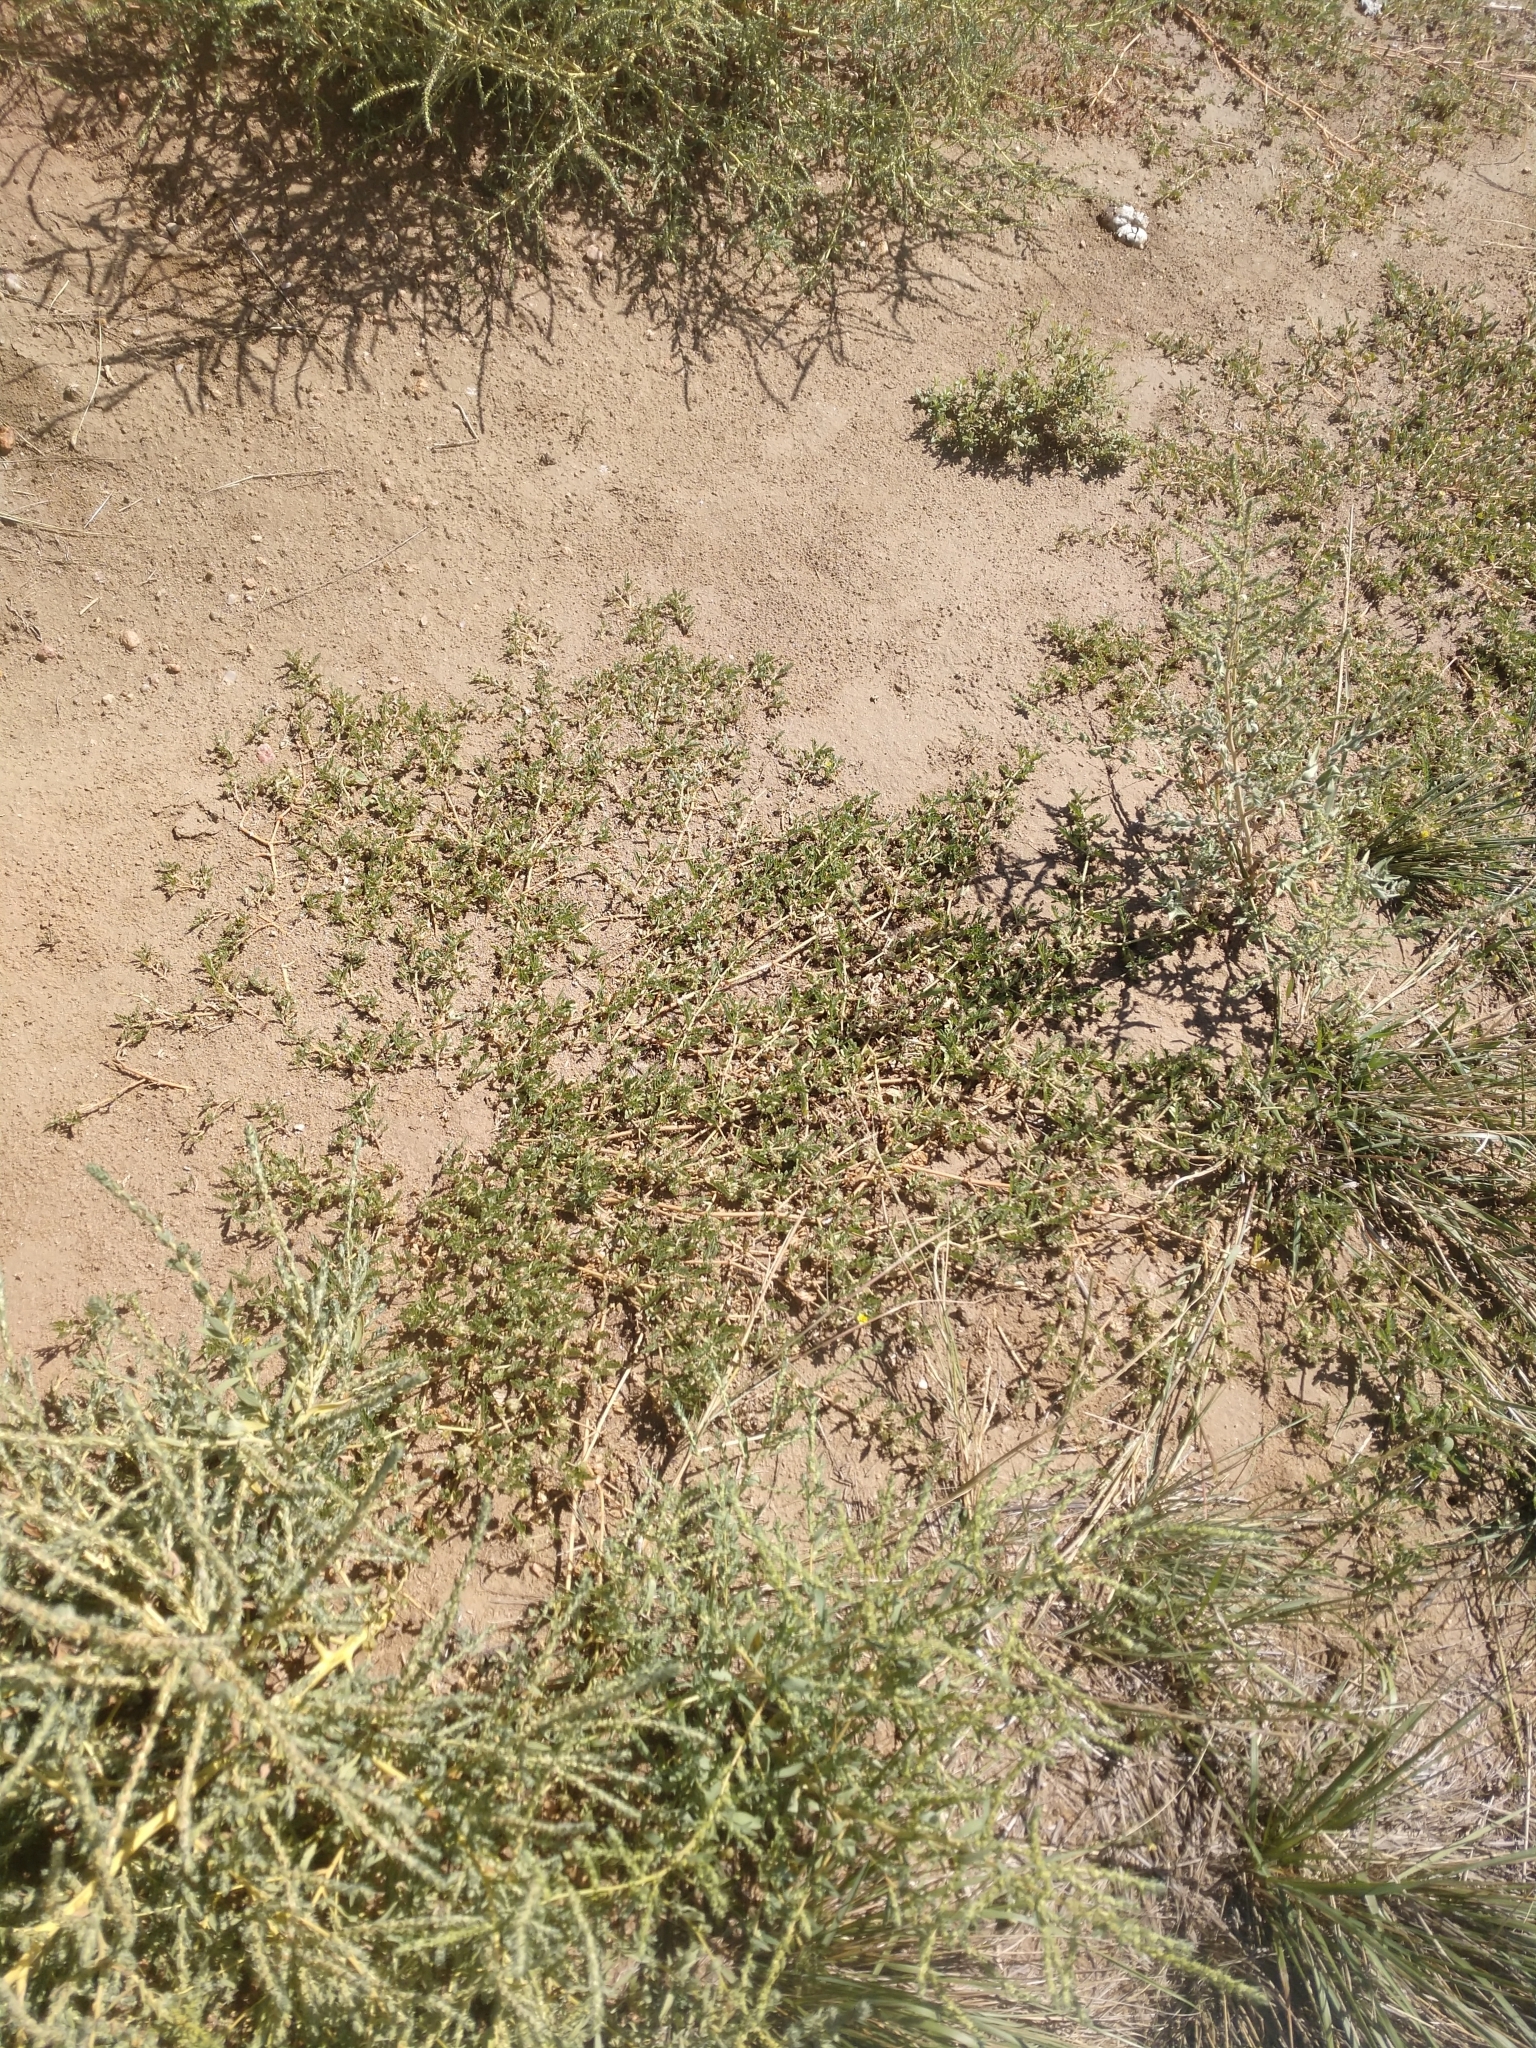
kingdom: Plantae
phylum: Tracheophyta
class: Magnoliopsida
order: Zygophyllales
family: Zygophyllaceae
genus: Tribulus
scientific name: Tribulus terrestris
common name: Puncturevine
